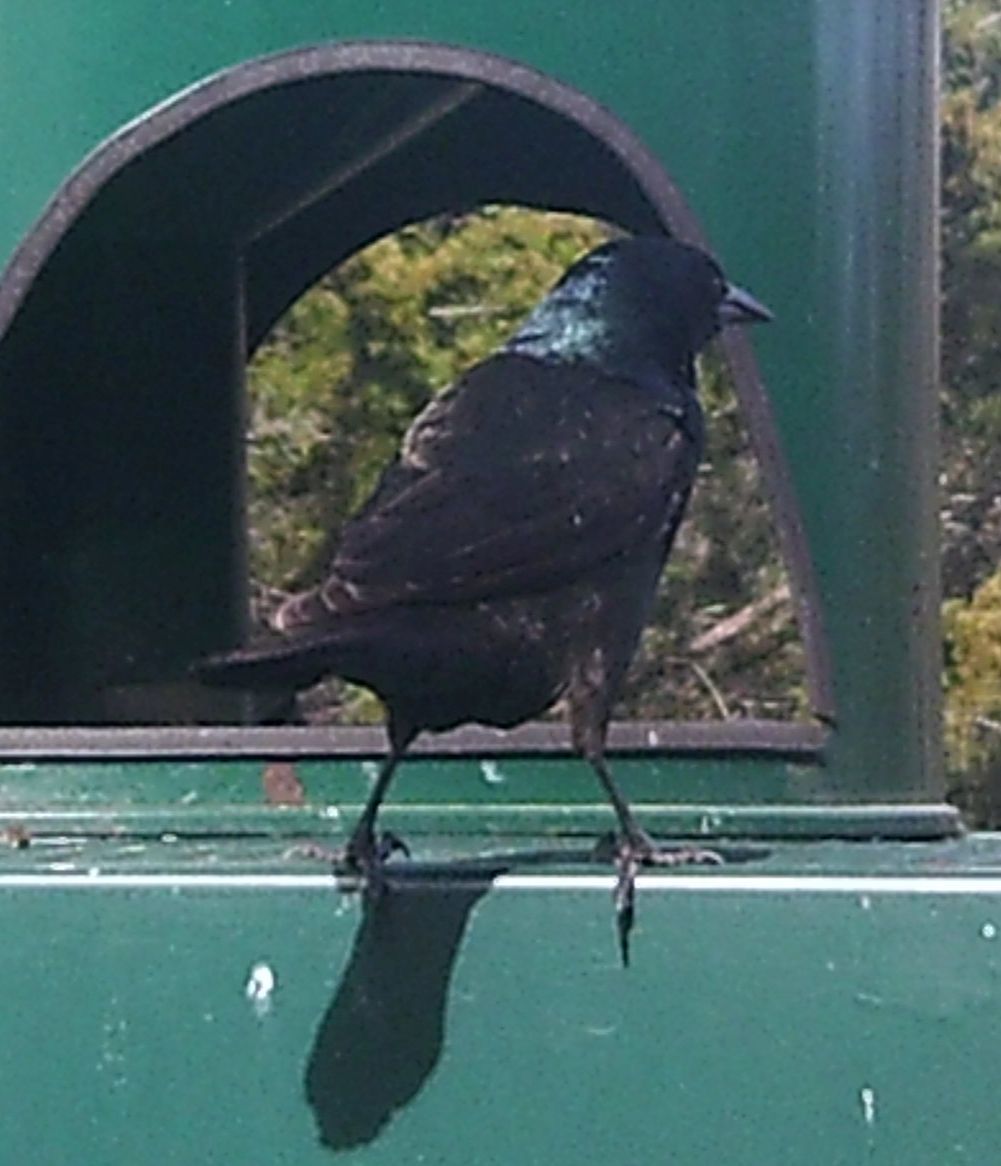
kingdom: Animalia
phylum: Chordata
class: Aves
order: Passeriformes
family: Icteridae
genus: Quiscalus
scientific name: Quiscalus quiscula
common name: Common grackle
